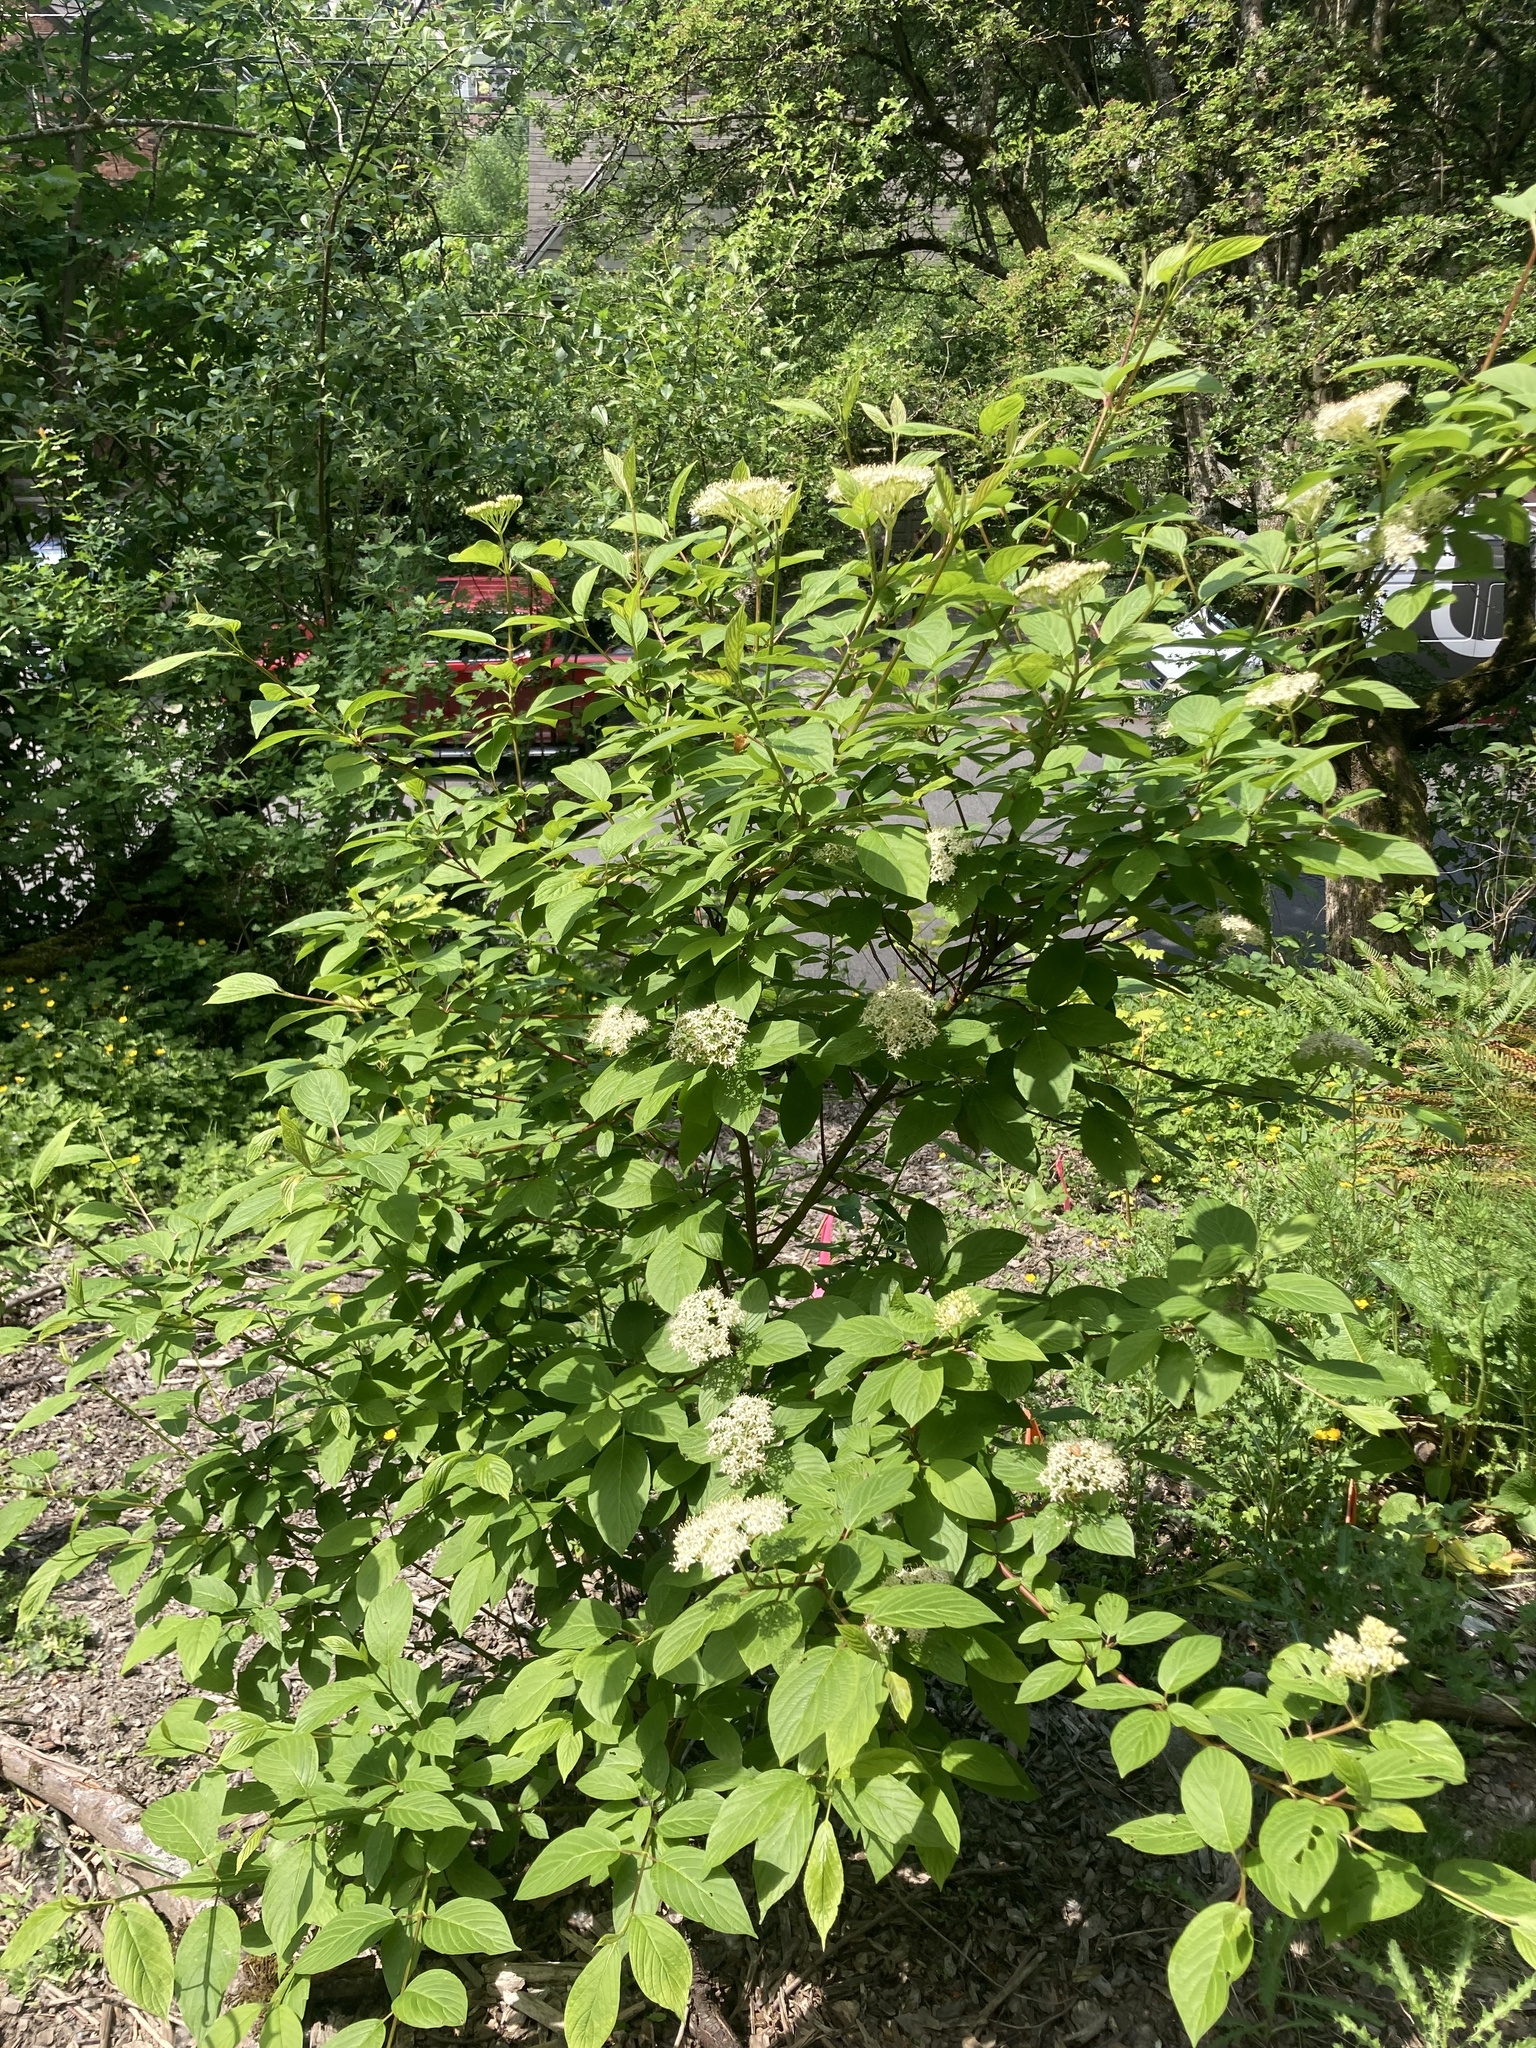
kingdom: Animalia
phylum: Arthropoda
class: Insecta
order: Hymenoptera
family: Apidae
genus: Bombus
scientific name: Bombus vosnesenskii
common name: Vosnesensky bumble bee
